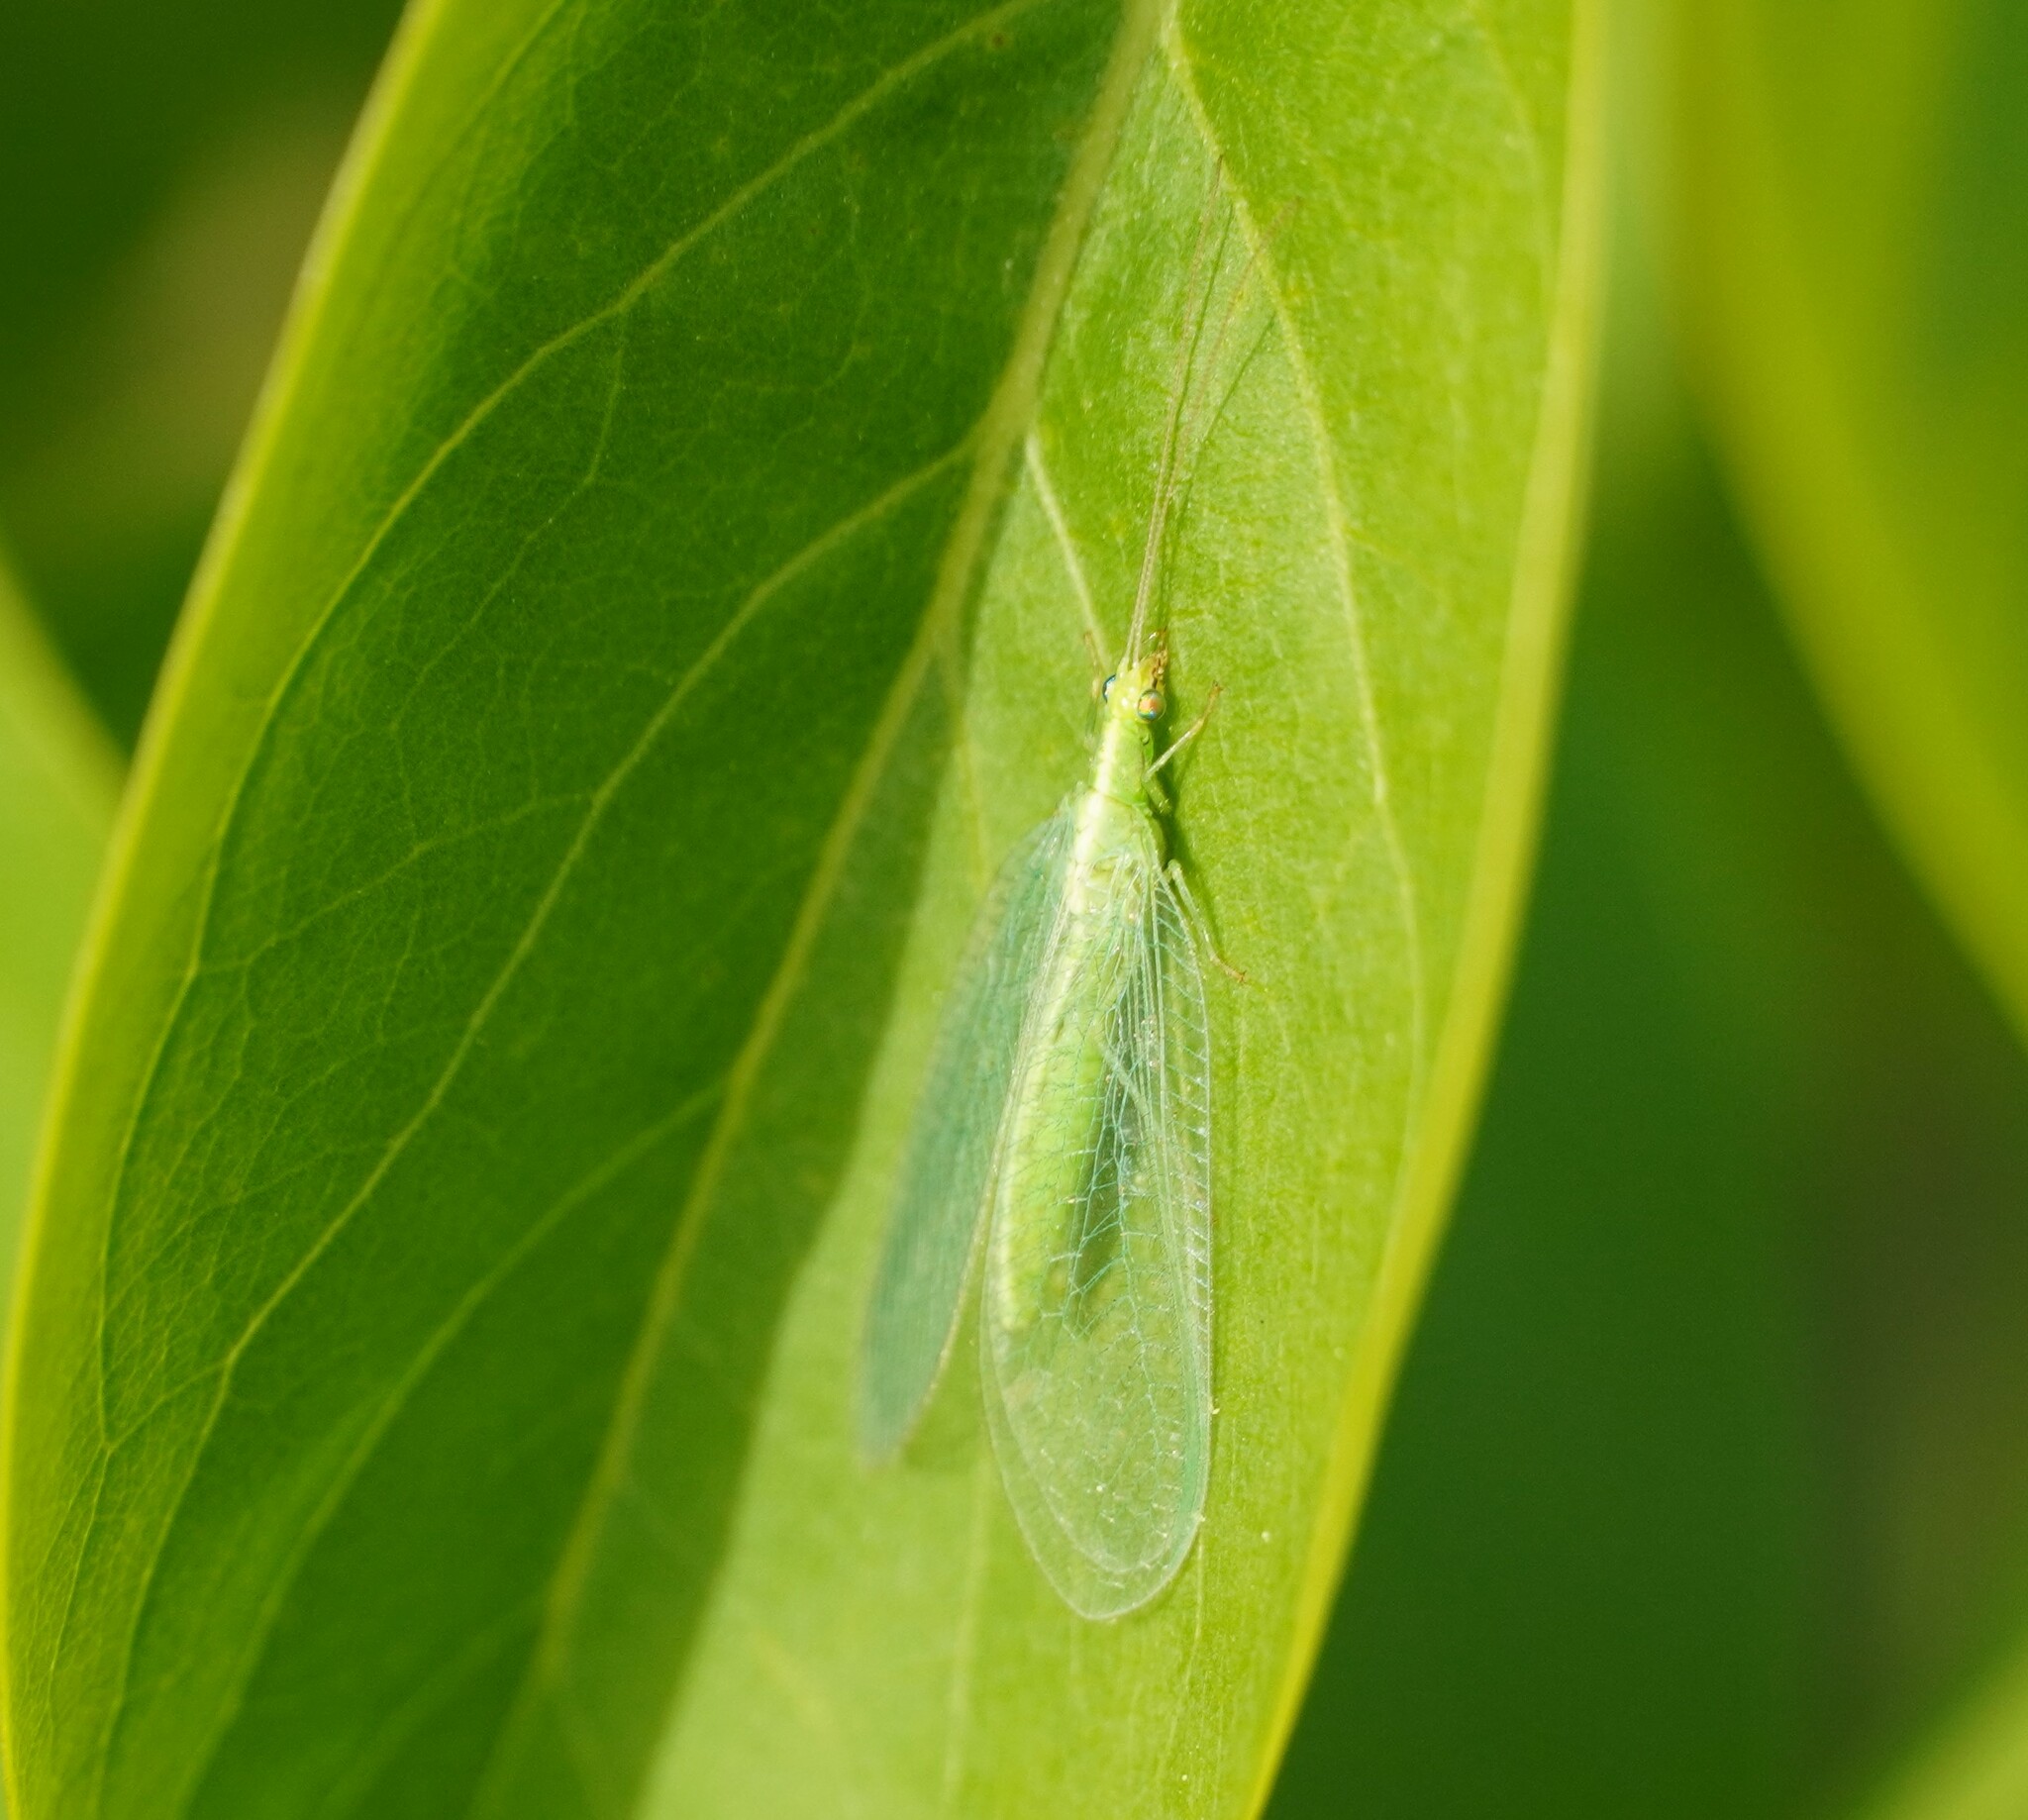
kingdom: Animalia
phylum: Arthropoda
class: Insecta
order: Neuroptera
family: Chrysopidae
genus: Chrysoperla
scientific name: Chrysoperla
